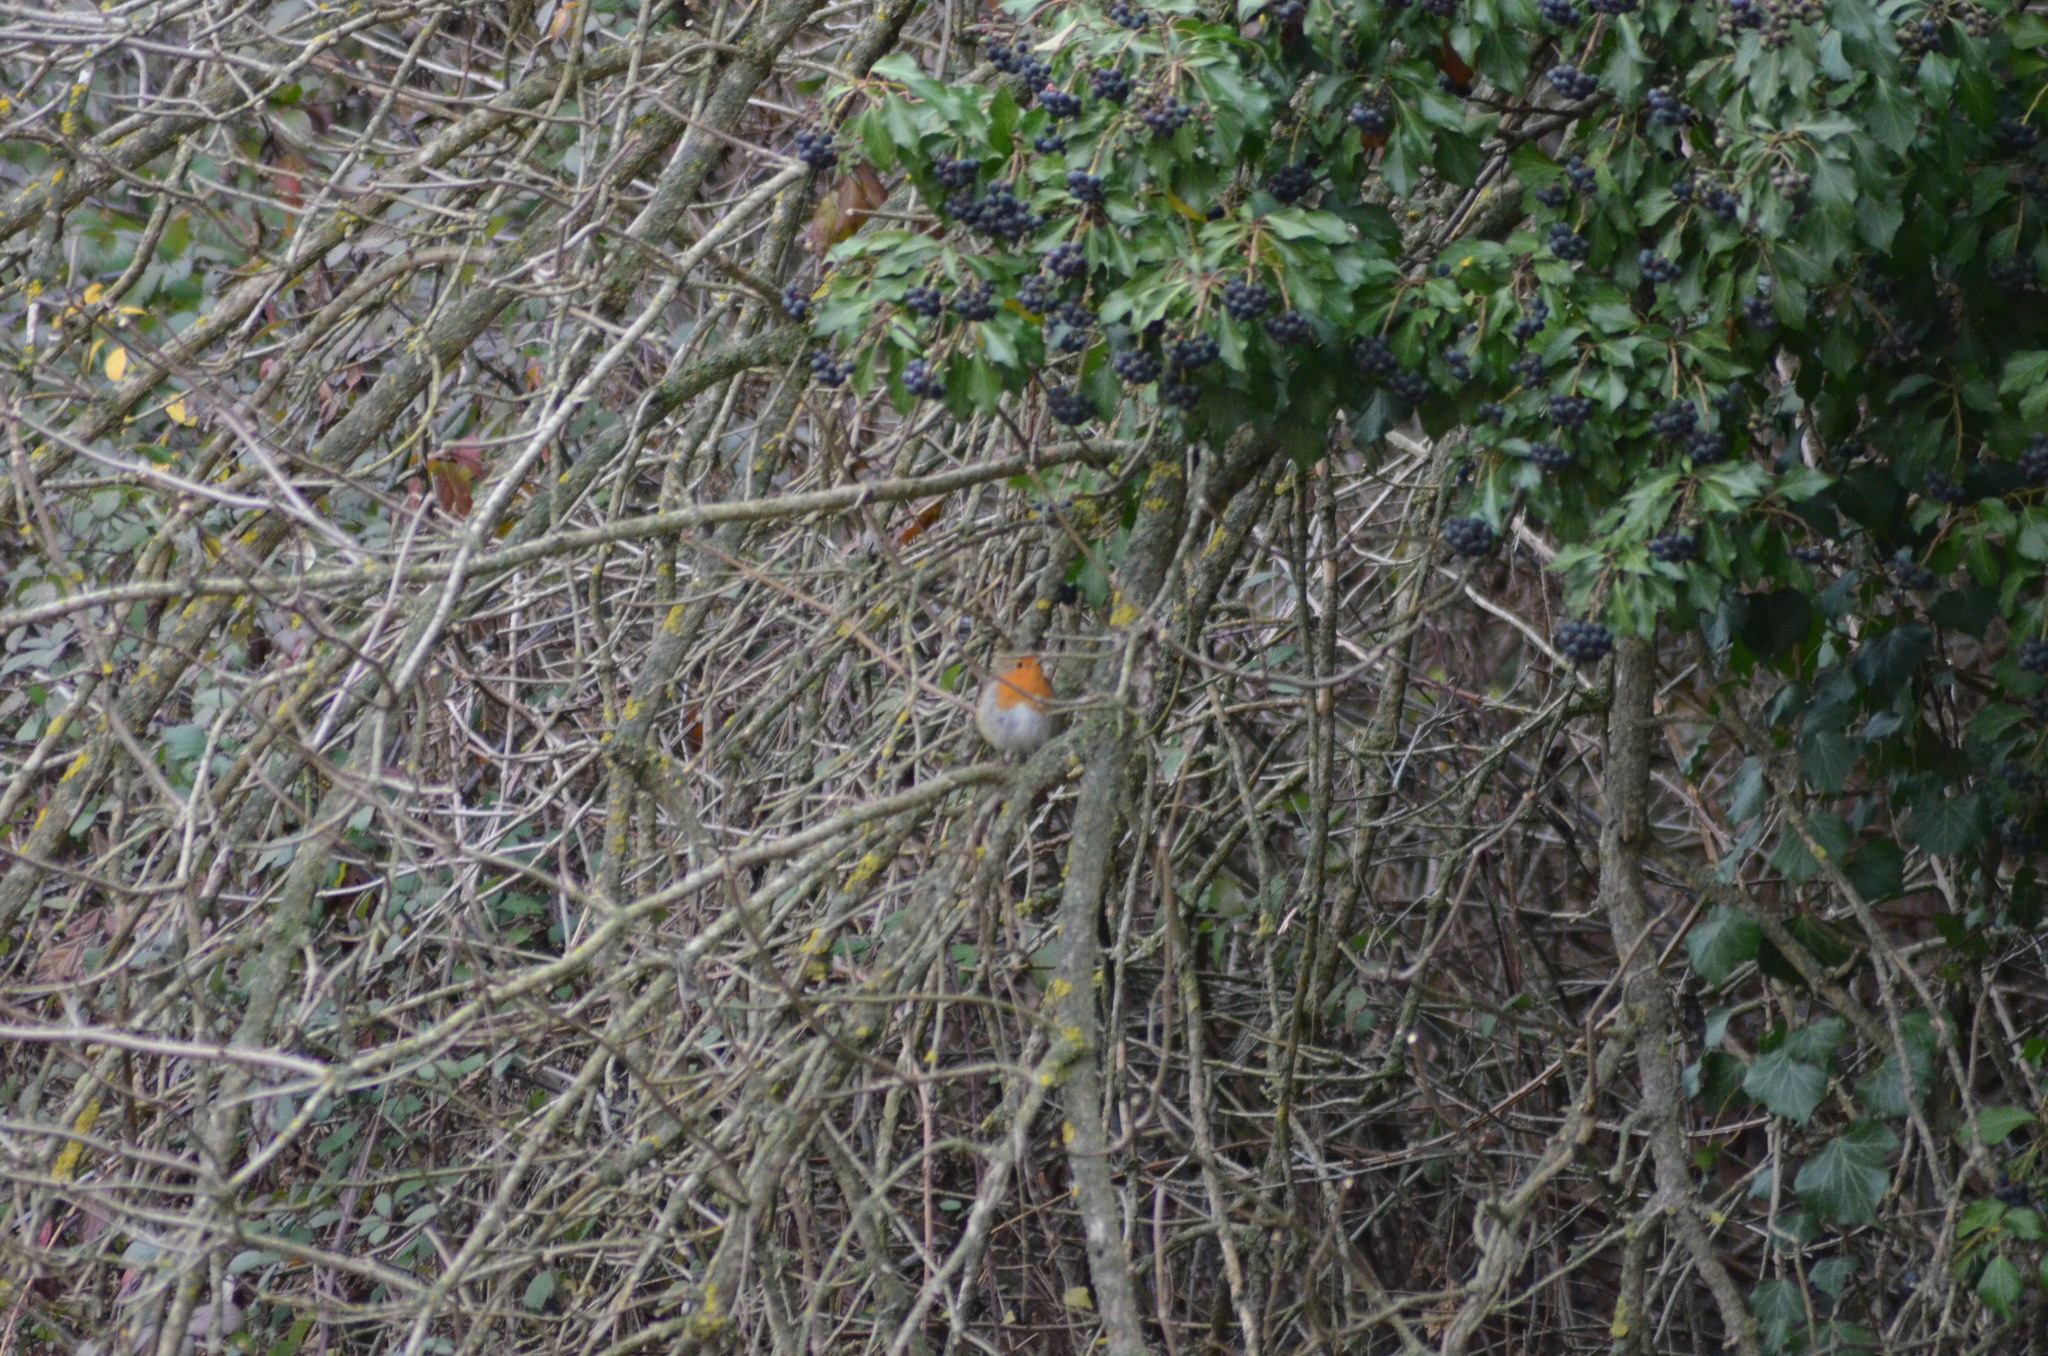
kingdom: Animalia
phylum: Chordata
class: Aves
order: Passeriformes
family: Muscicapidae
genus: Erithacus
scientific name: Erithacus rubecula
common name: European robin
